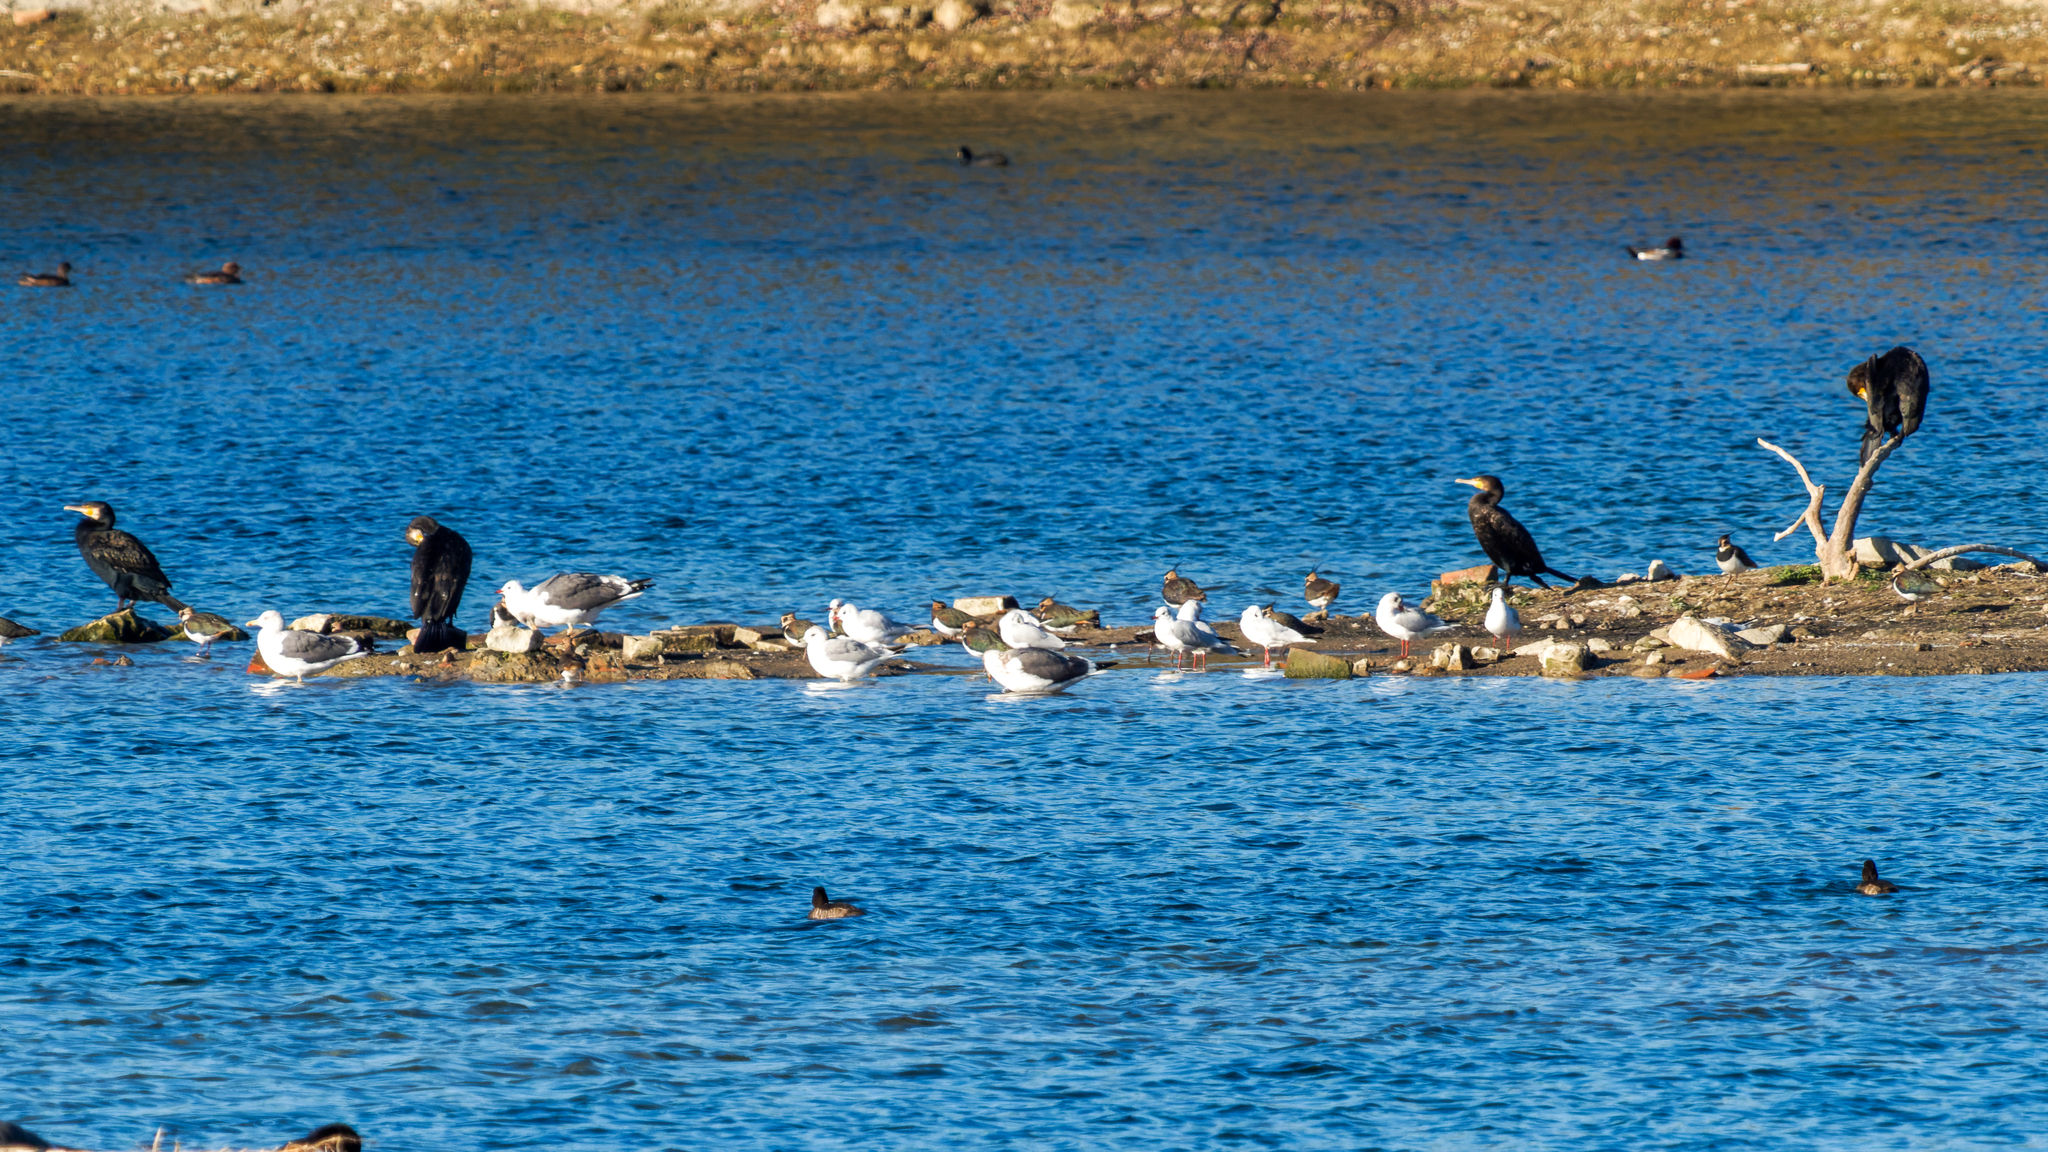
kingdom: Animalia
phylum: Chordata
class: Aves
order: Suliformes
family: Phalacrocoracidae
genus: Phalacrocorax
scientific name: Phalacrocorax carbo
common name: Great cormorant
